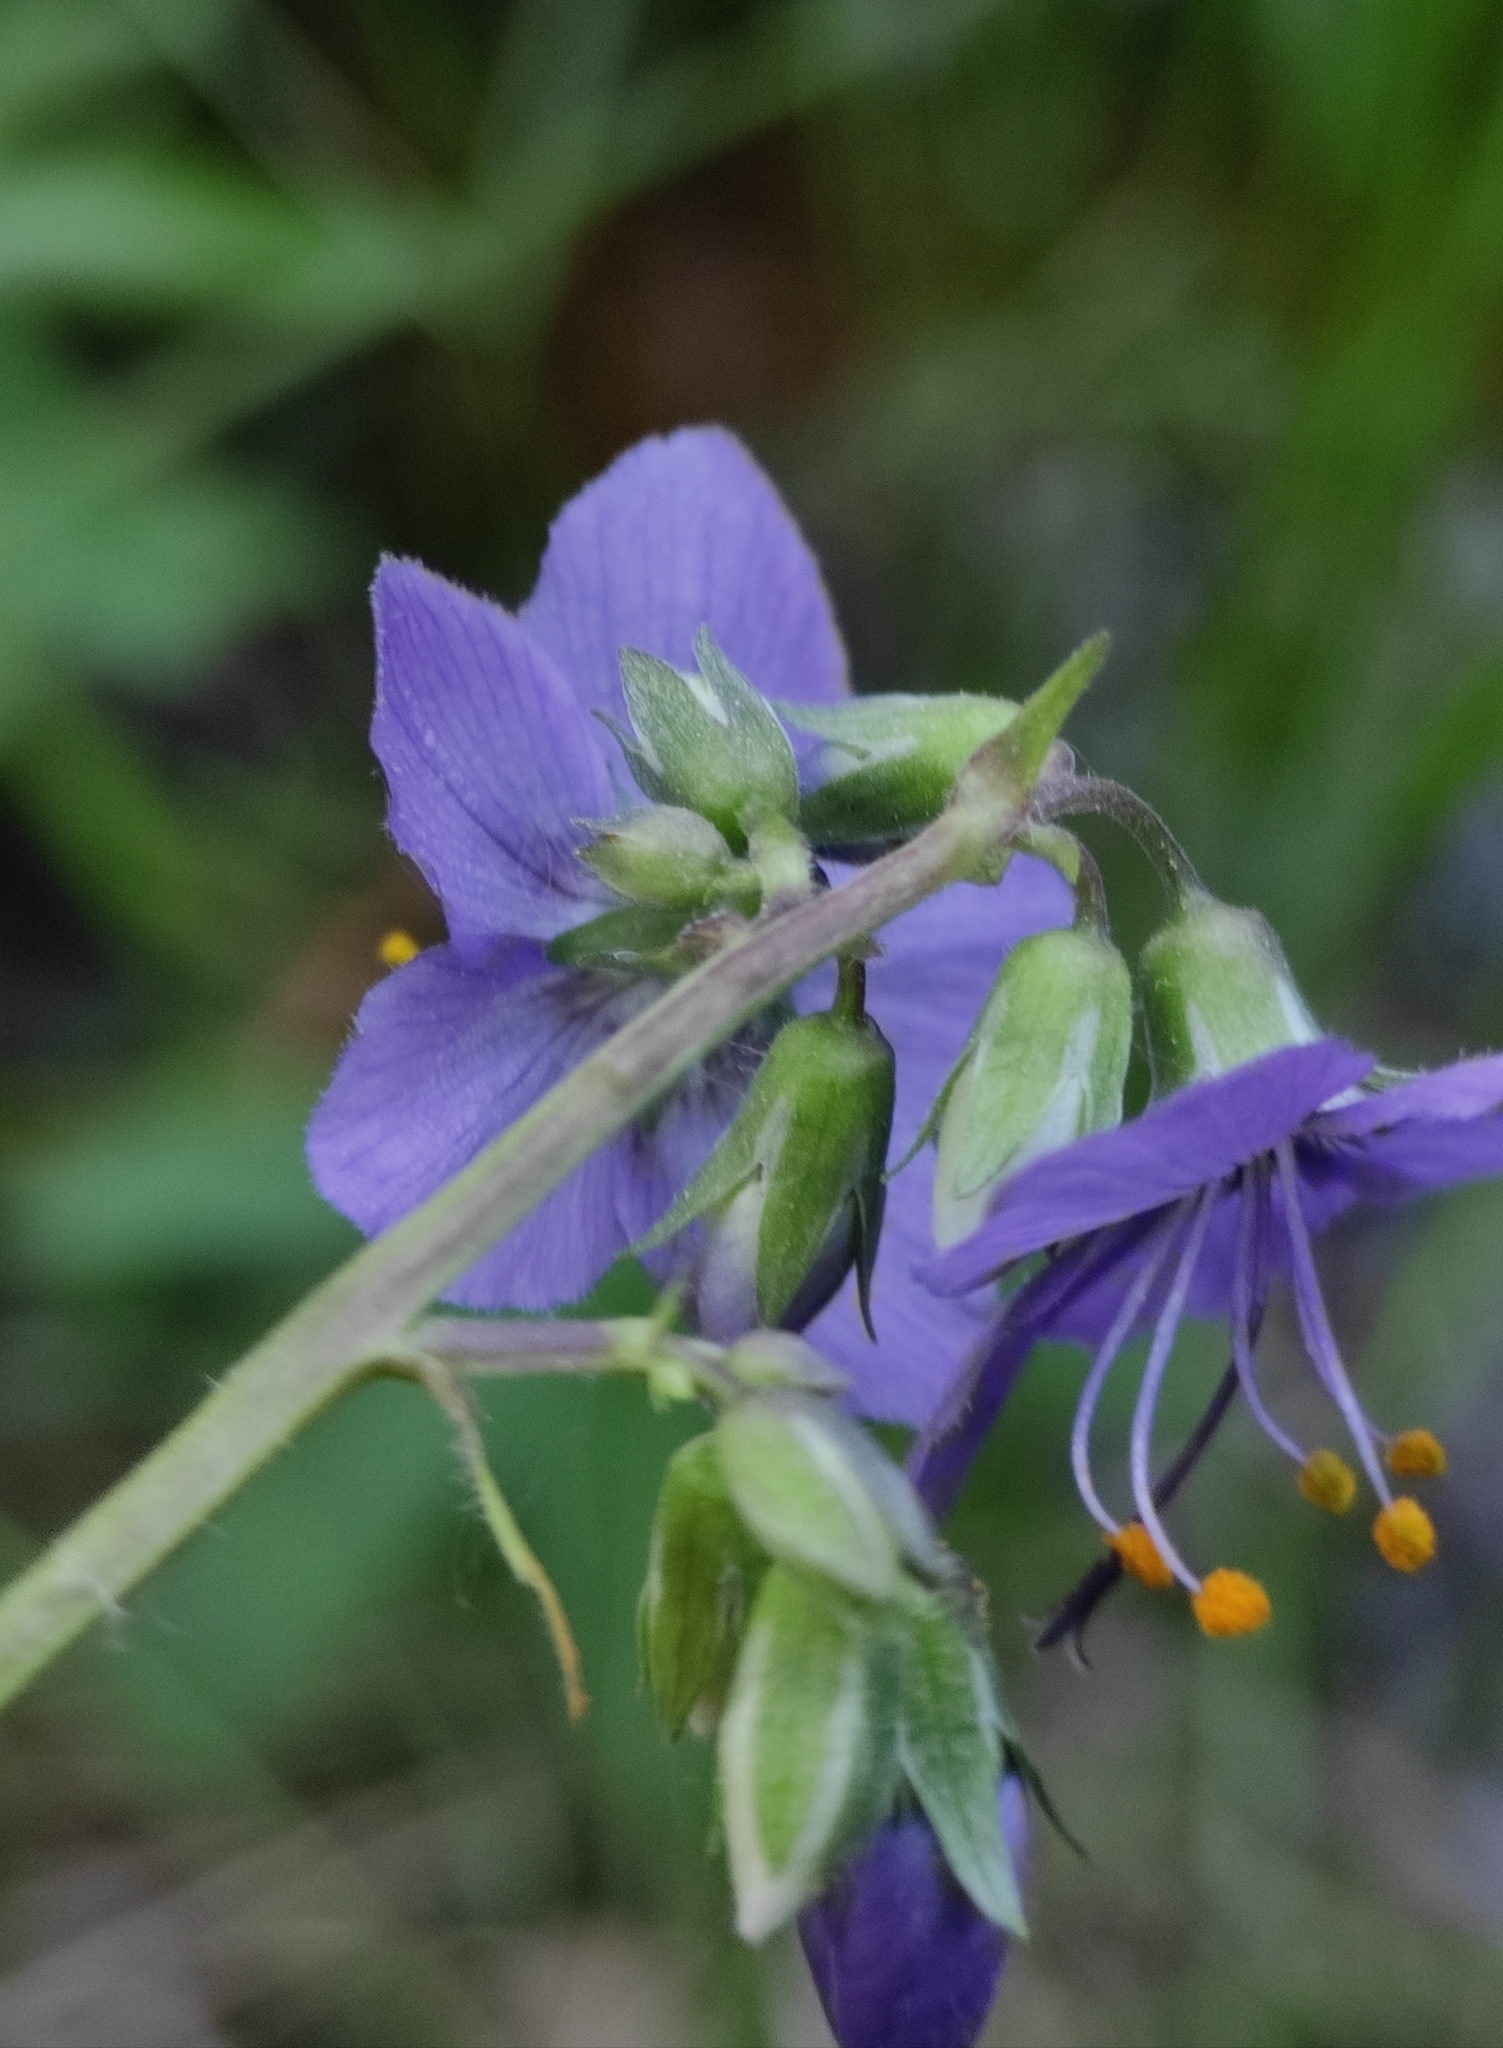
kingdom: Plantae
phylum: Tracheophyta
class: Magnoliopsida
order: Ericales
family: Polemoniaceae
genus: Polemonium
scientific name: Polemonium acutiflorum
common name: Tall jacob's-ladder
